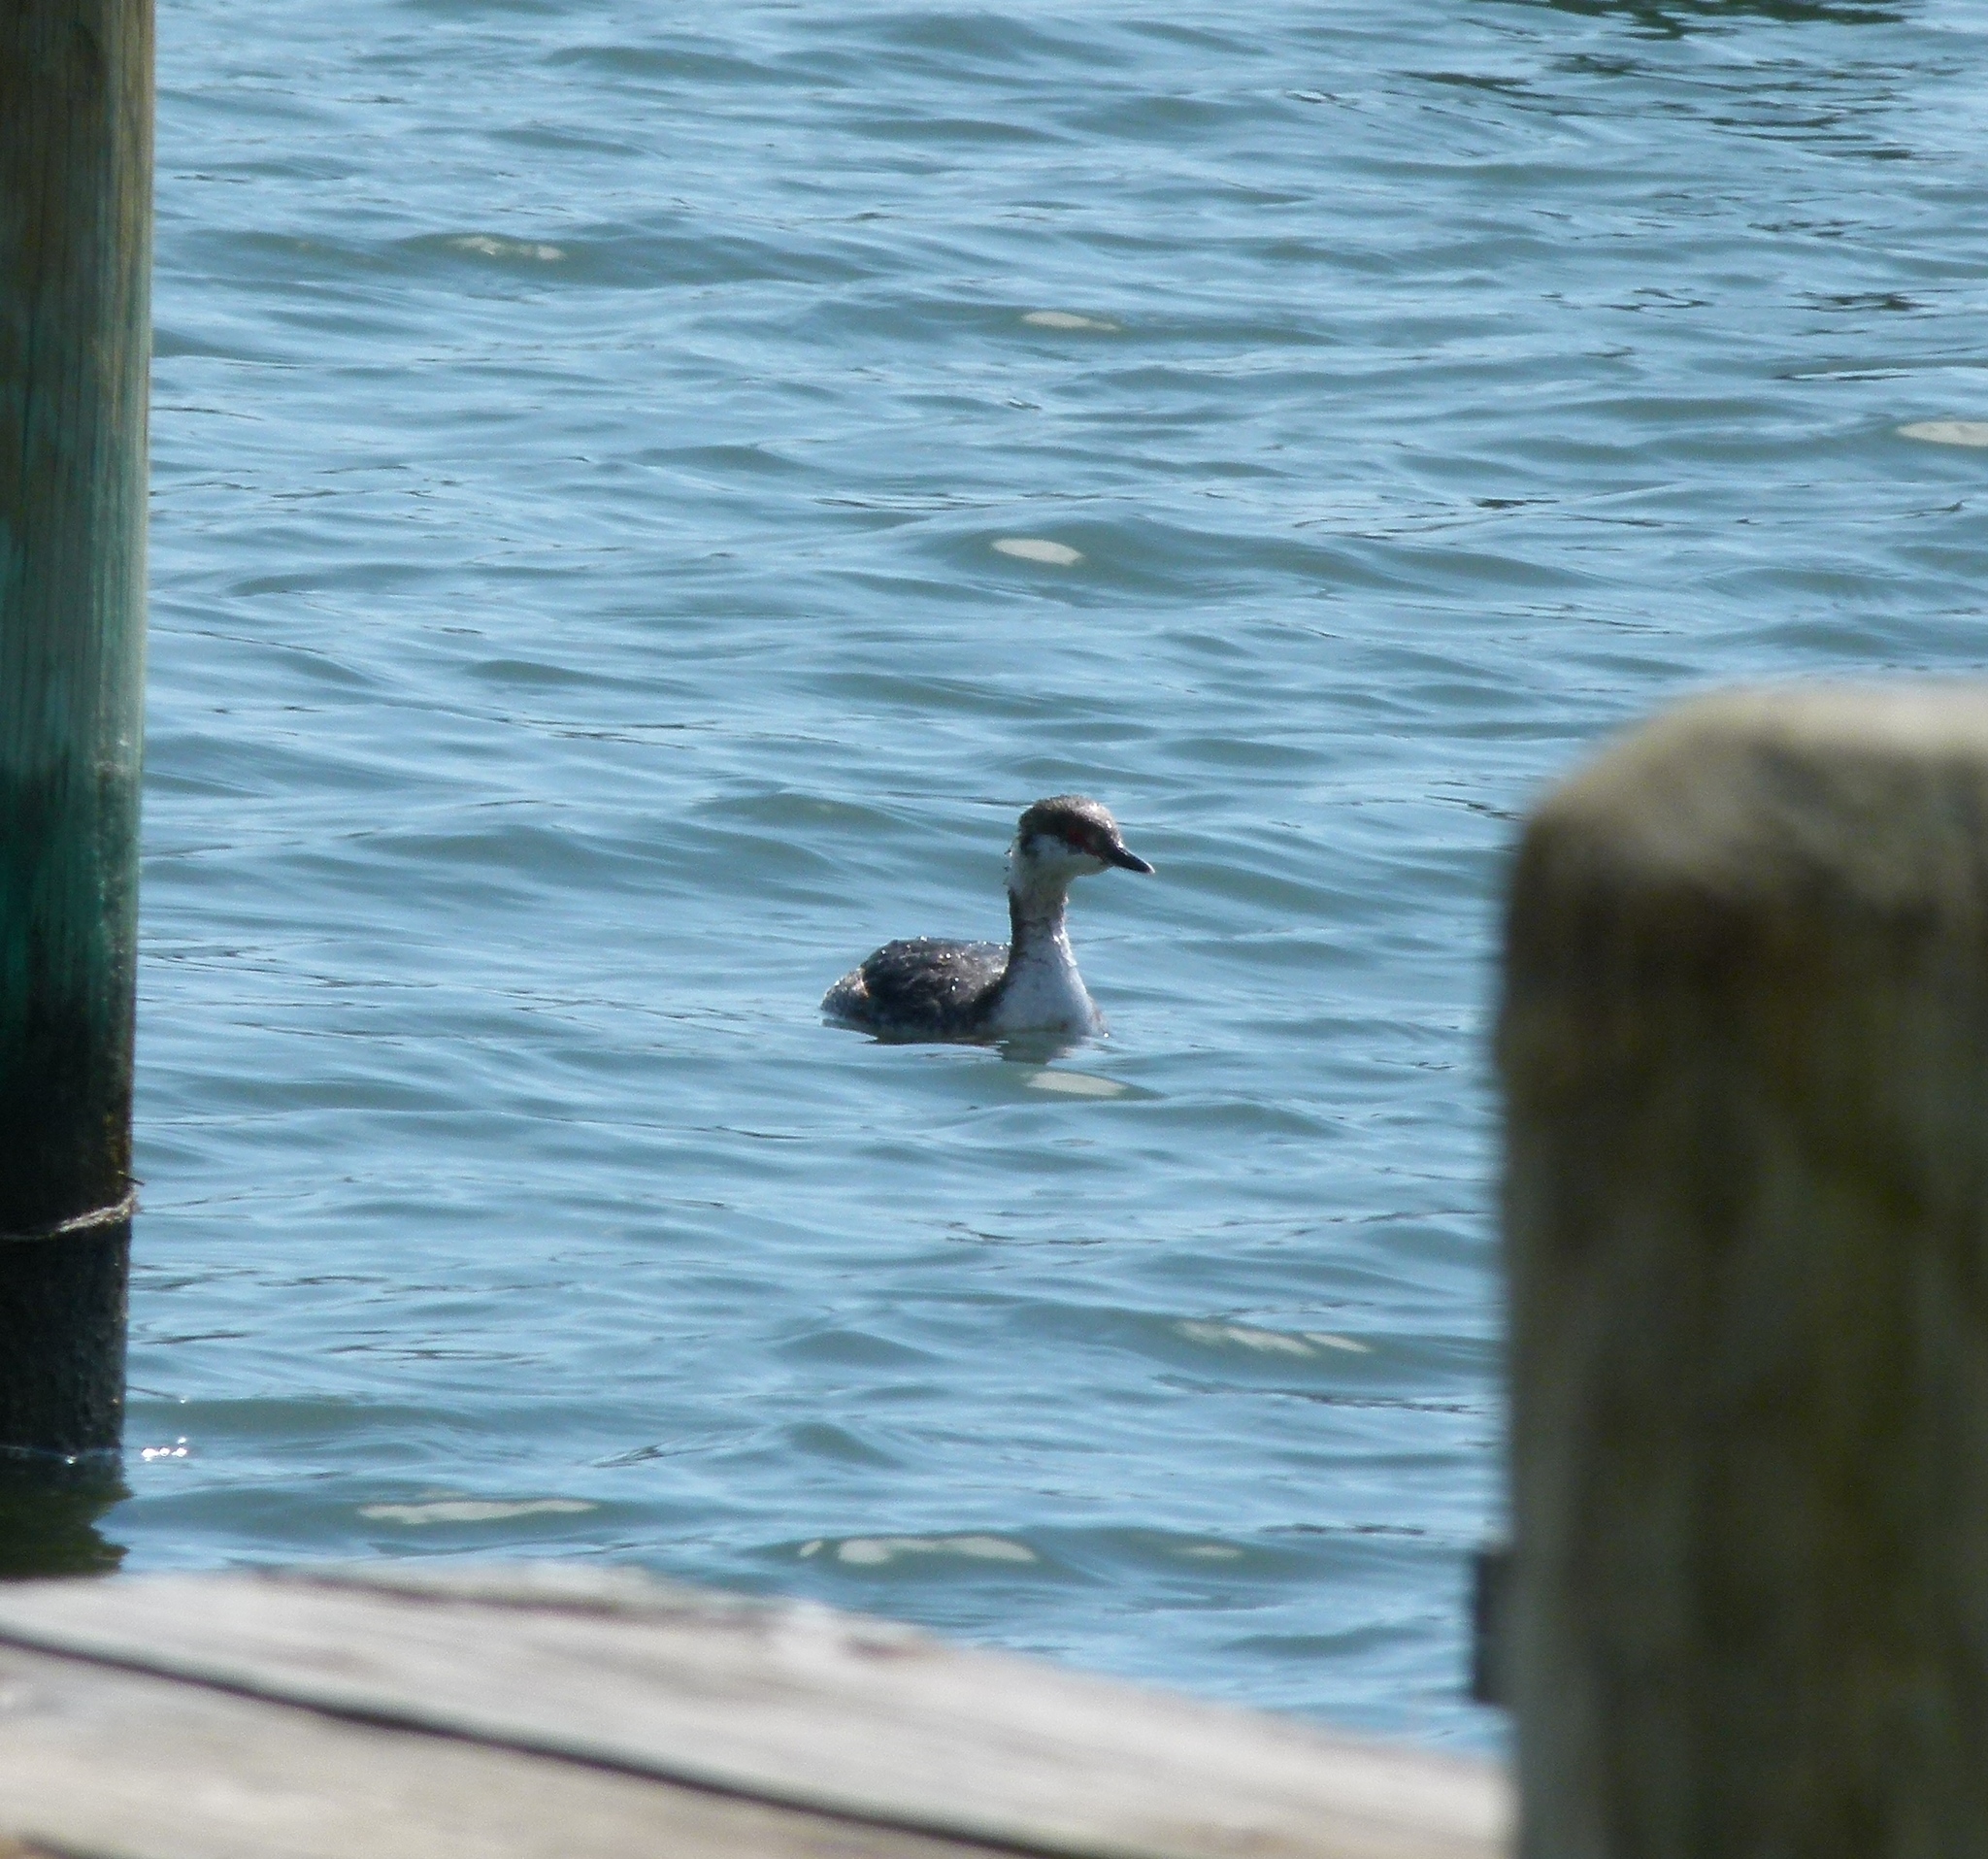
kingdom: Animalia
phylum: Chordata
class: Aves
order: Podicipediformes
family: Podicipedidae
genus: Podiceps
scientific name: Podiceps auritus
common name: Horned grebe
